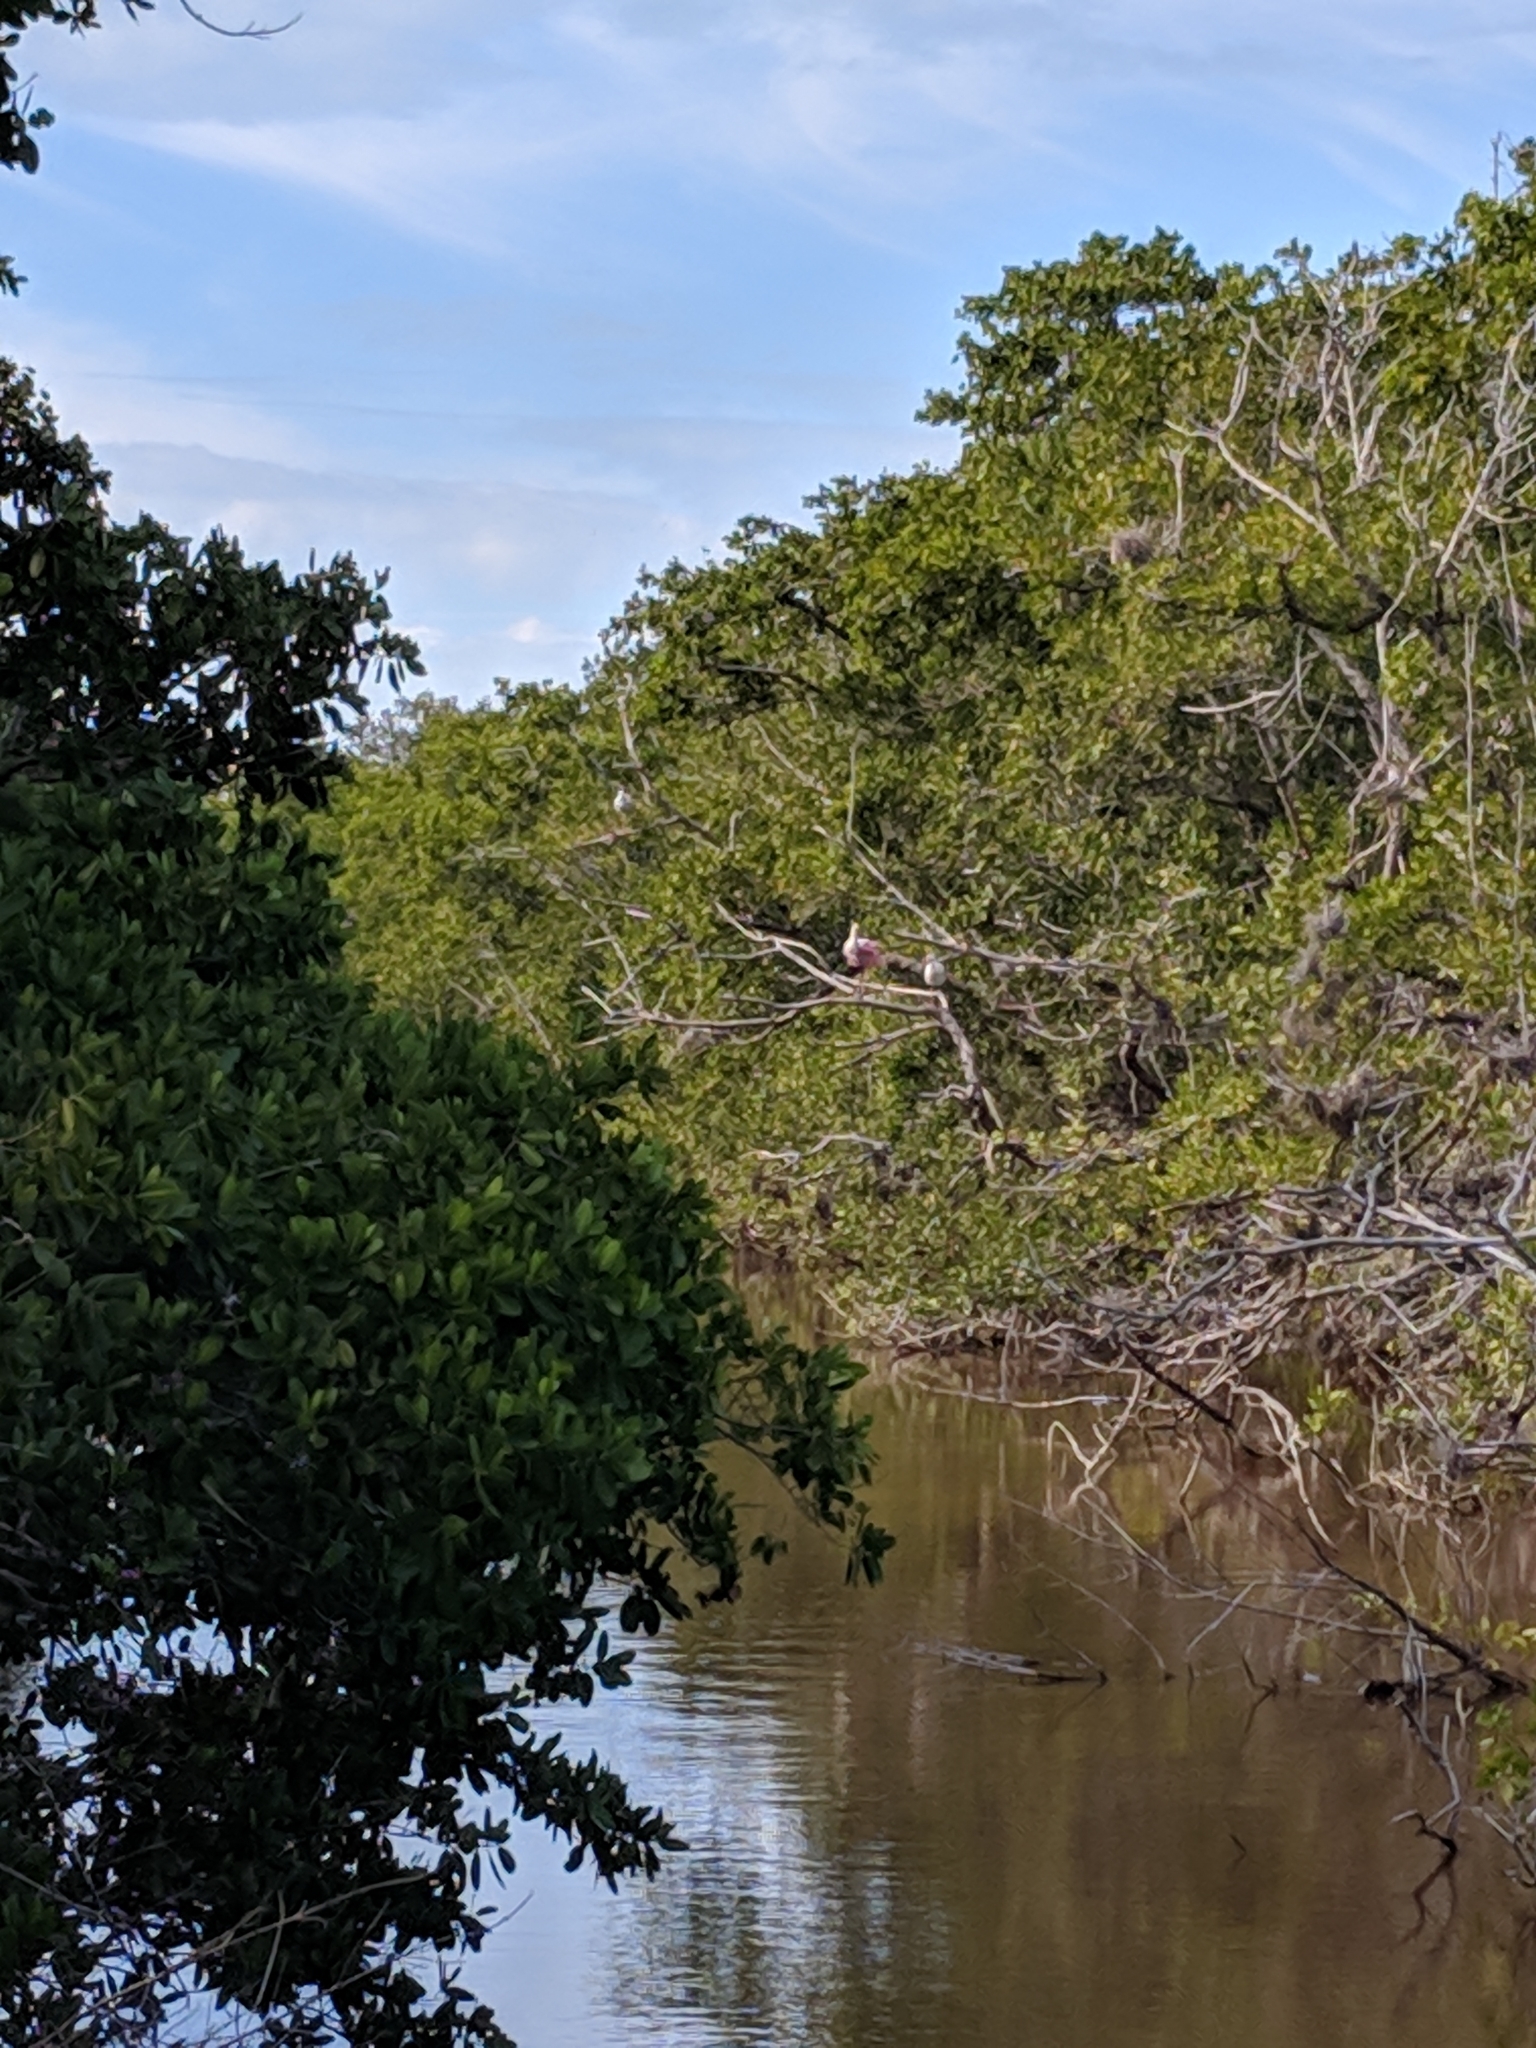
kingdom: Animalia
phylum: Chordata
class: Aves
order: Pelecaniformes
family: Threskiornithidae
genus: Platalea
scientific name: Platalea ajaja
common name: Roseate spoonbill
